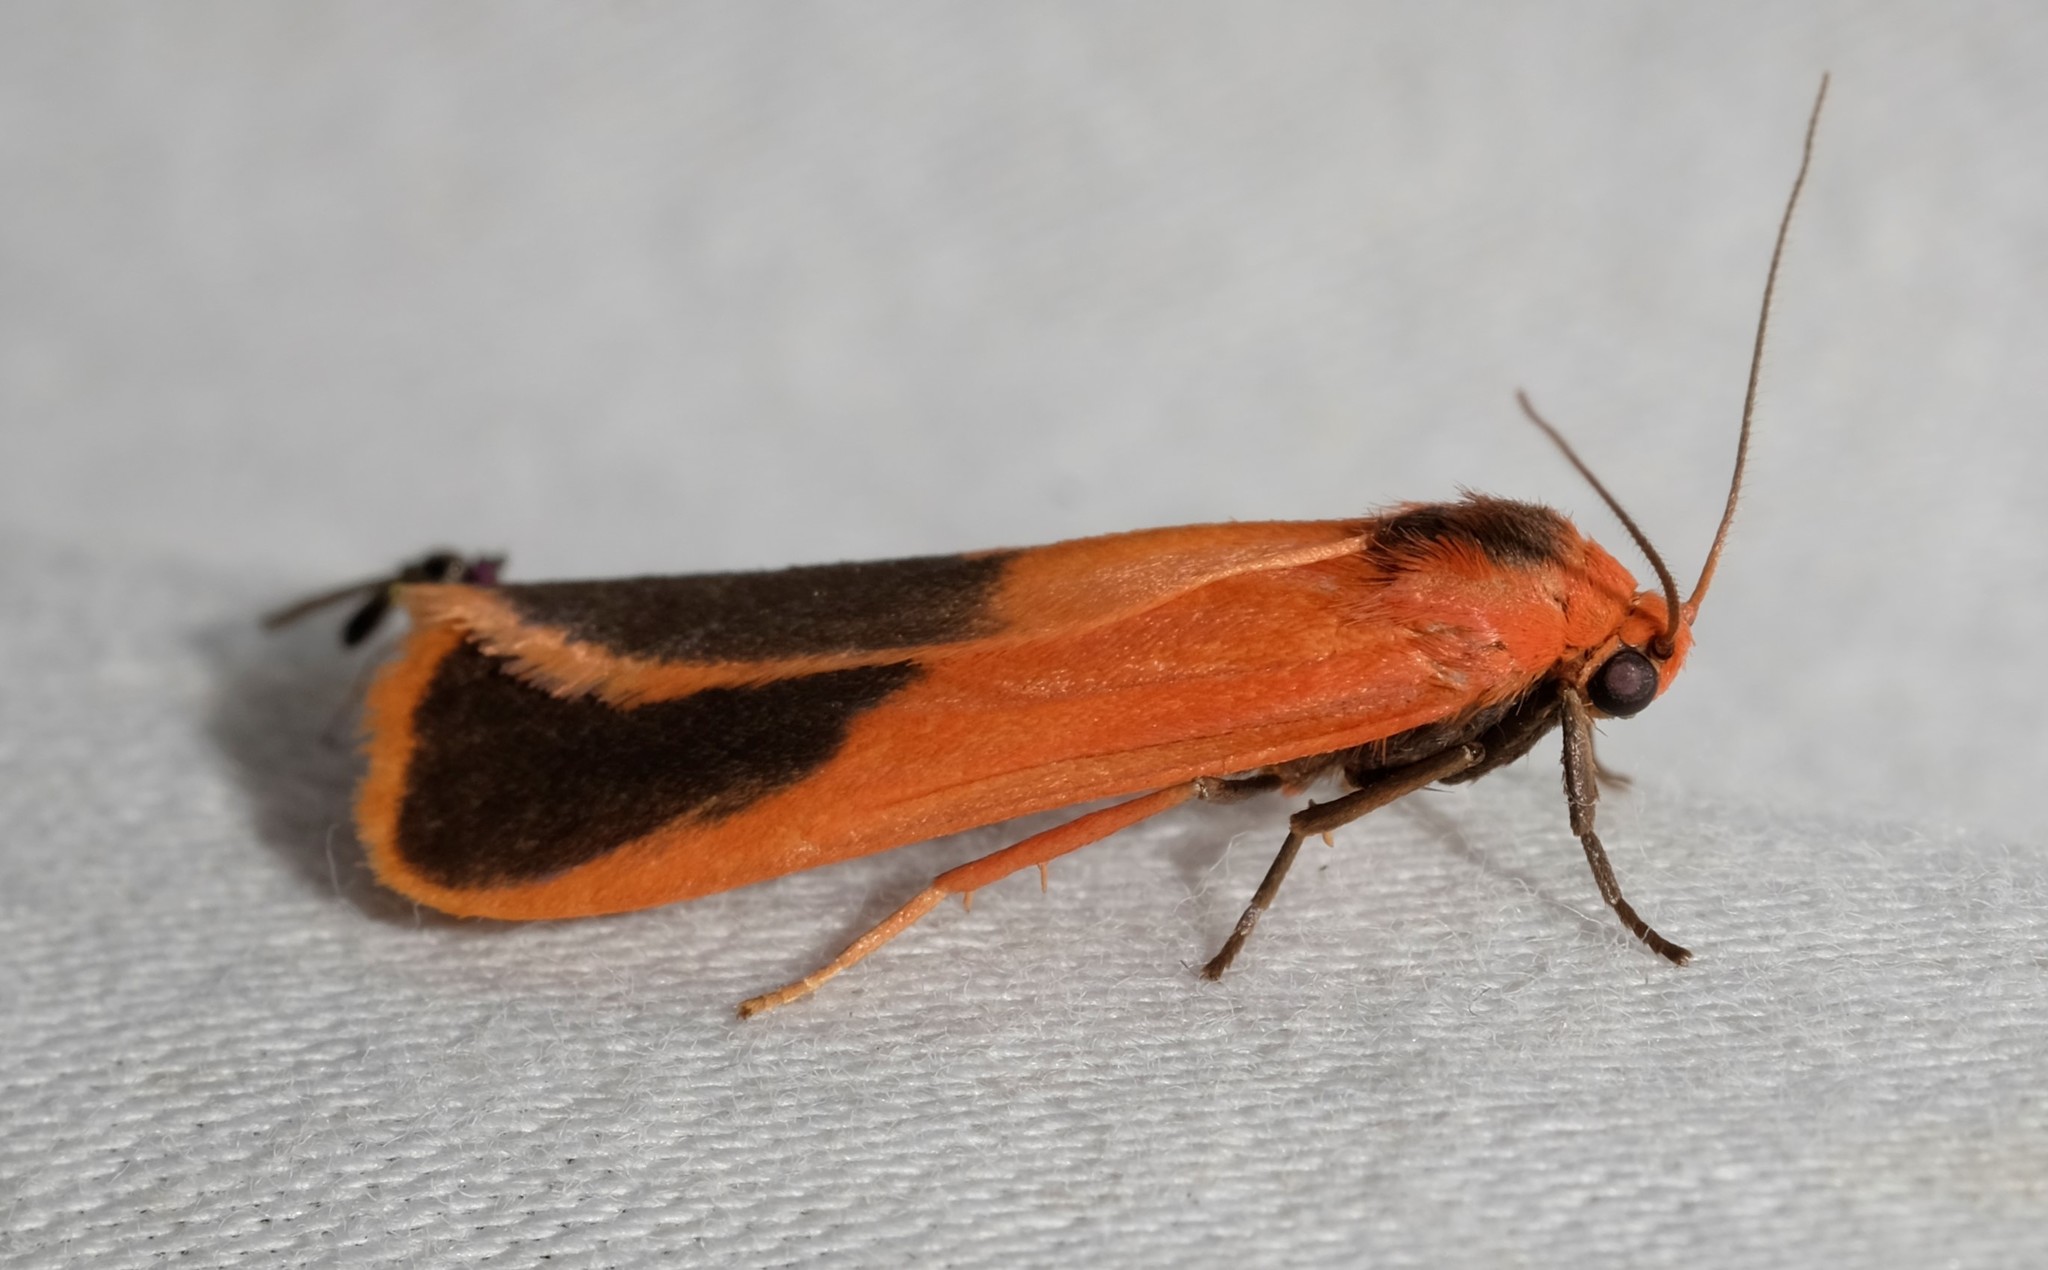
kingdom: Animalia
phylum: Arthropoda
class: Insecta
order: Lepidoptera
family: Erebidae
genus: Scoliacma
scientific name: Scoliacma bicolora
